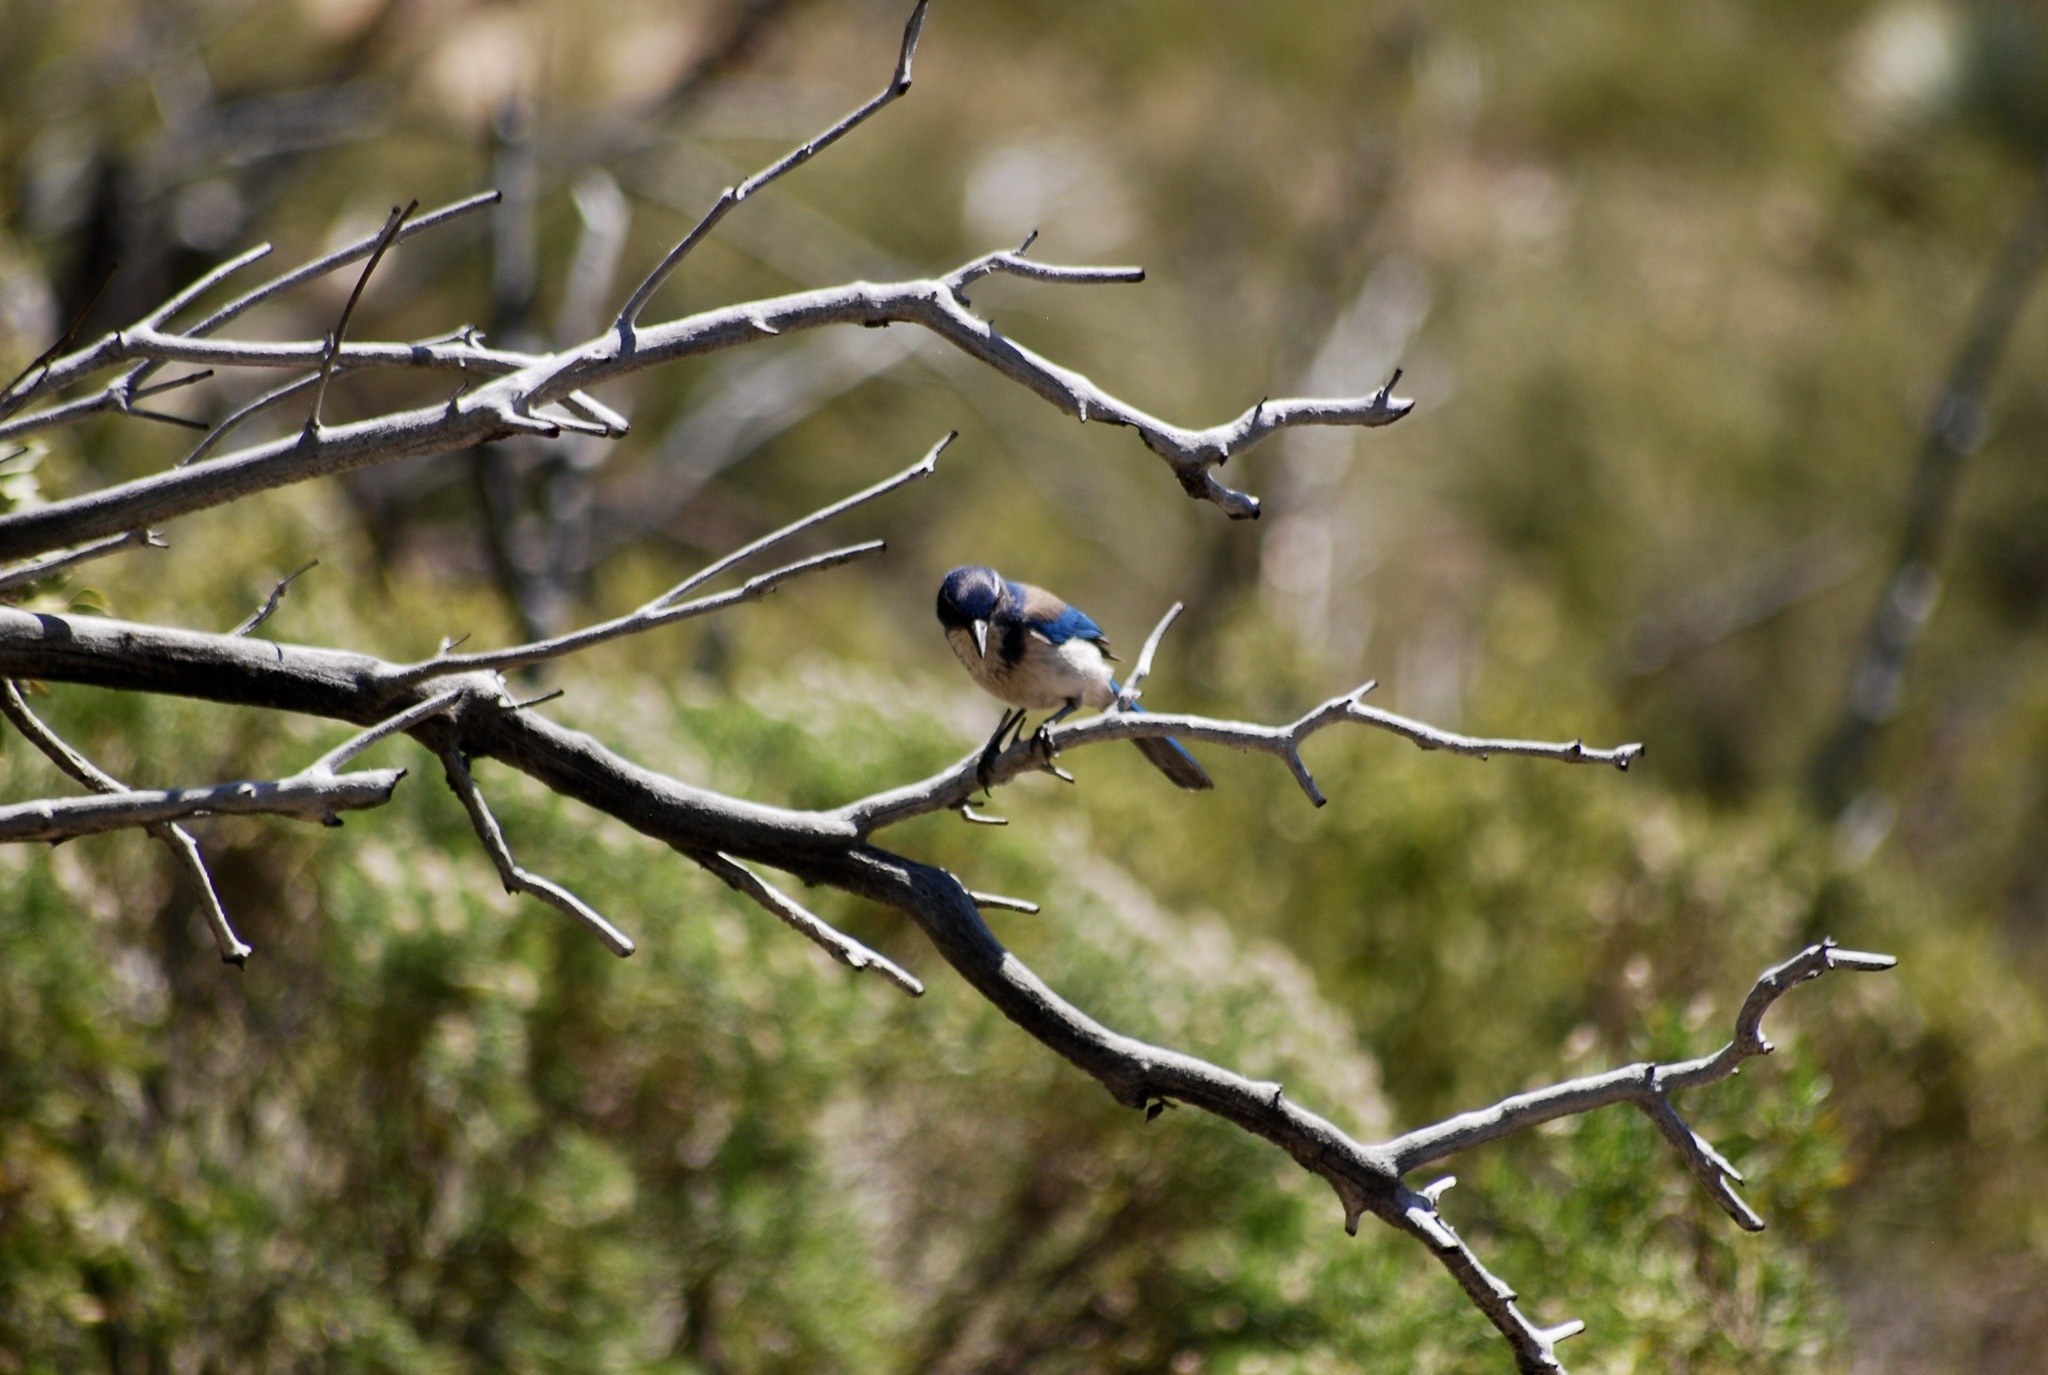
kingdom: Animalia
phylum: Chordata
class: Aves
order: Passeriformes
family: Corvidae
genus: Aphelocoma
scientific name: Aphelocoma californica
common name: California scrub-jay
